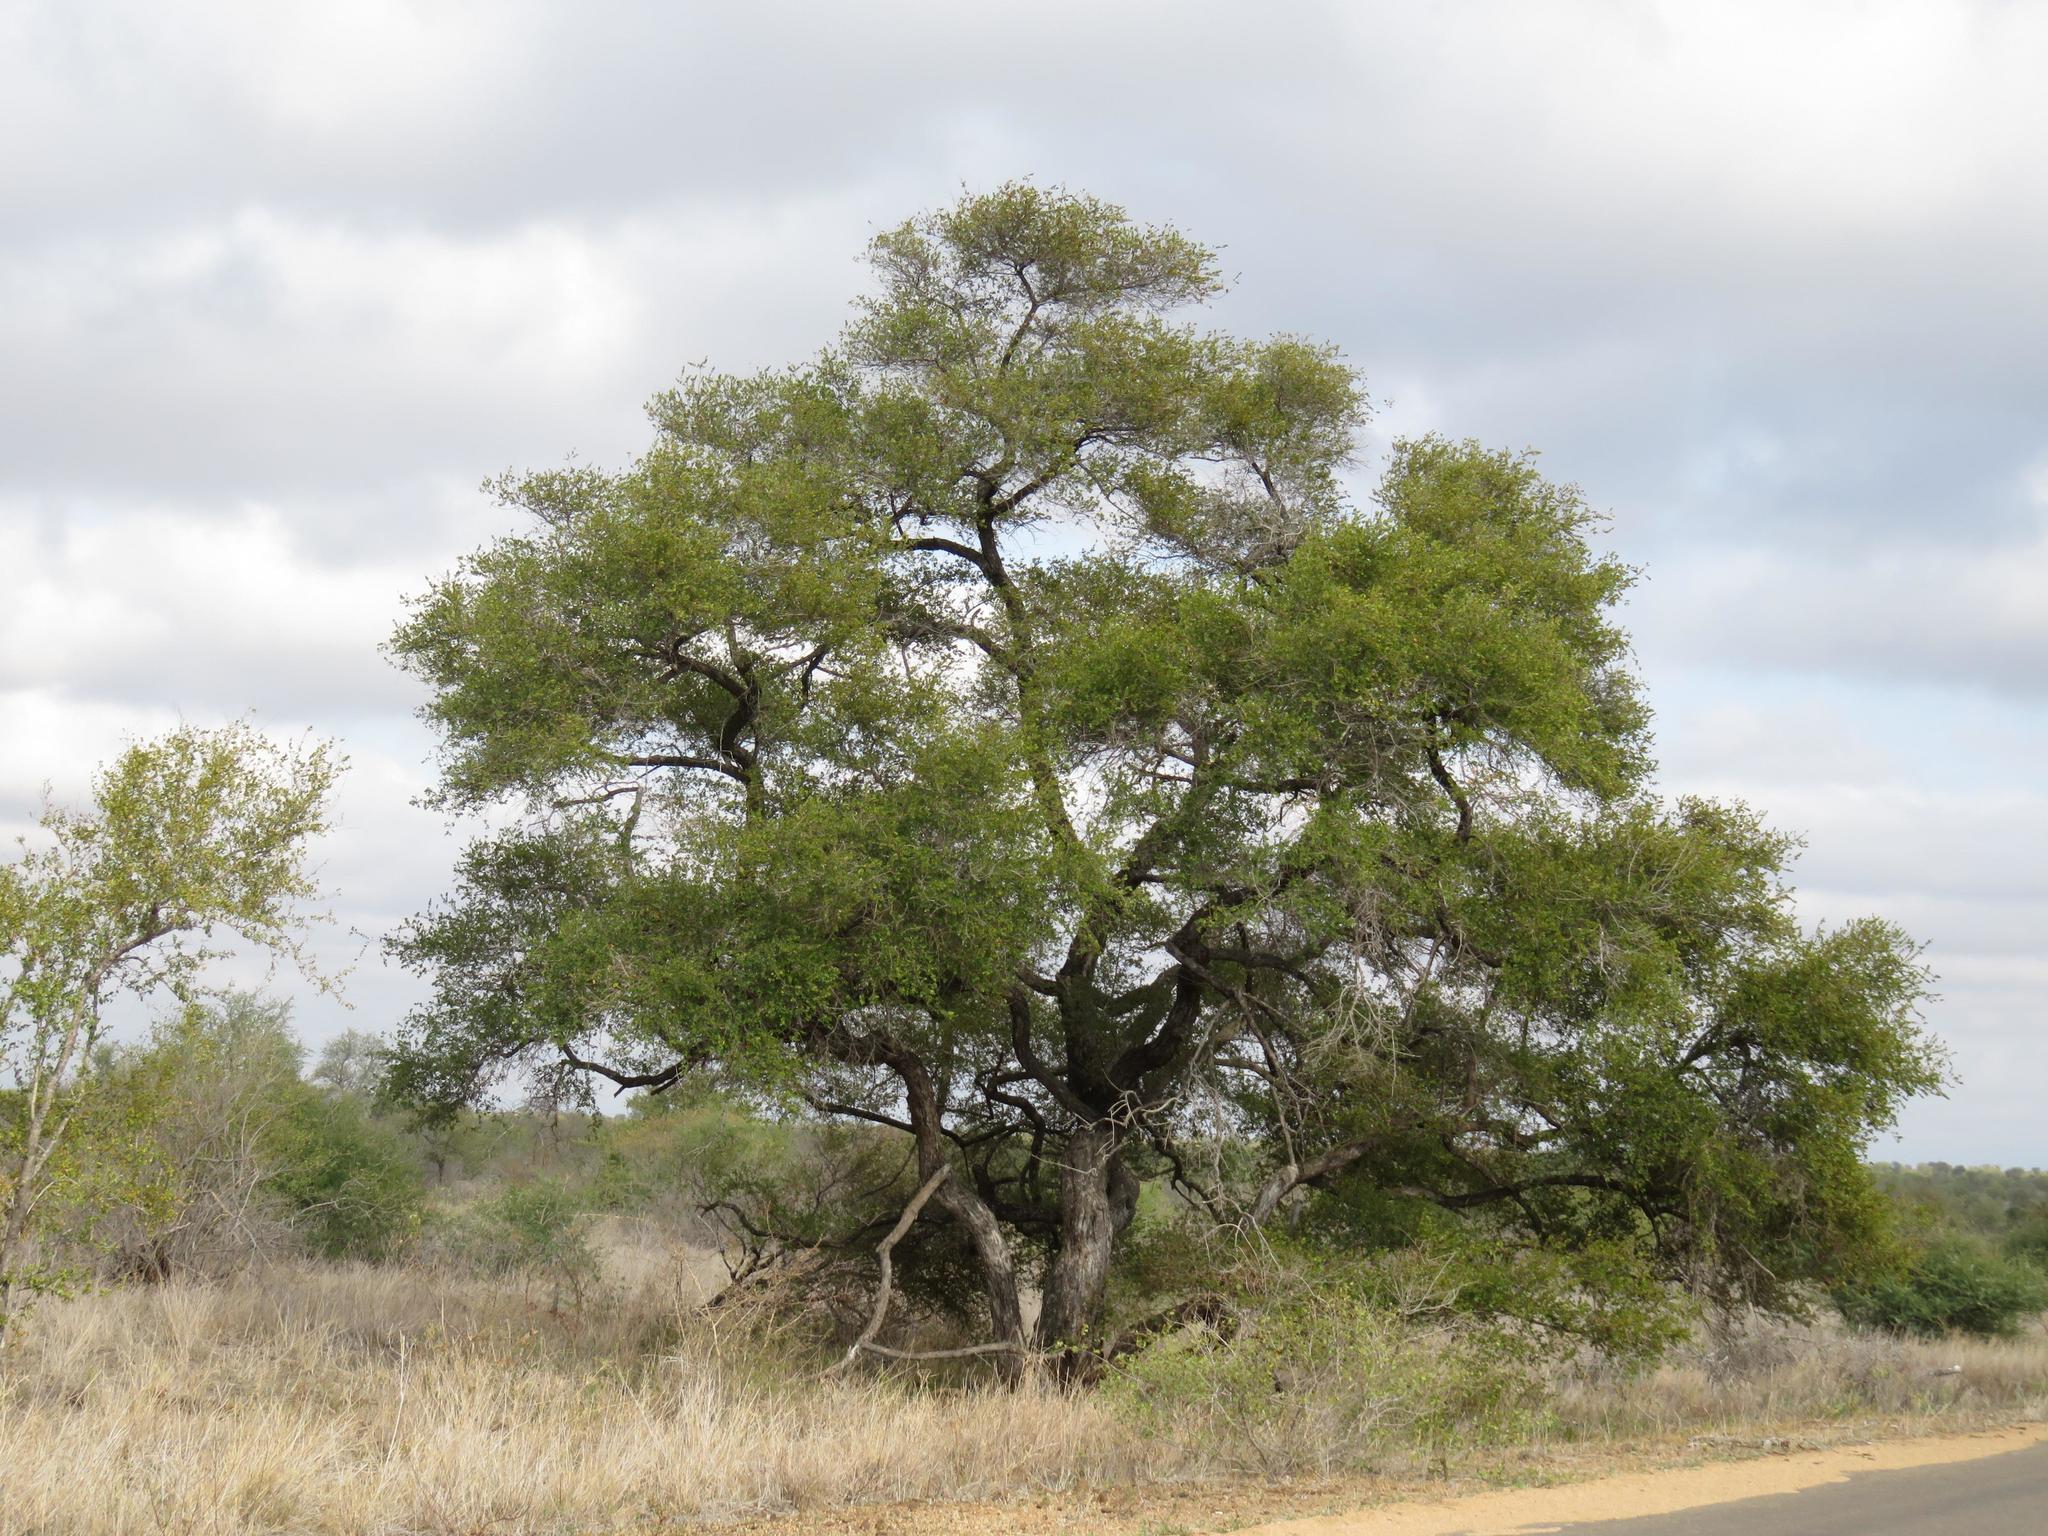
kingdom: Plantae
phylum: Tracheophyta
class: Magnoliopsida
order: Myrtales
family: Combretaceae
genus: Combretum
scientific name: Combretum hereroense
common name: Russet bushwillow
